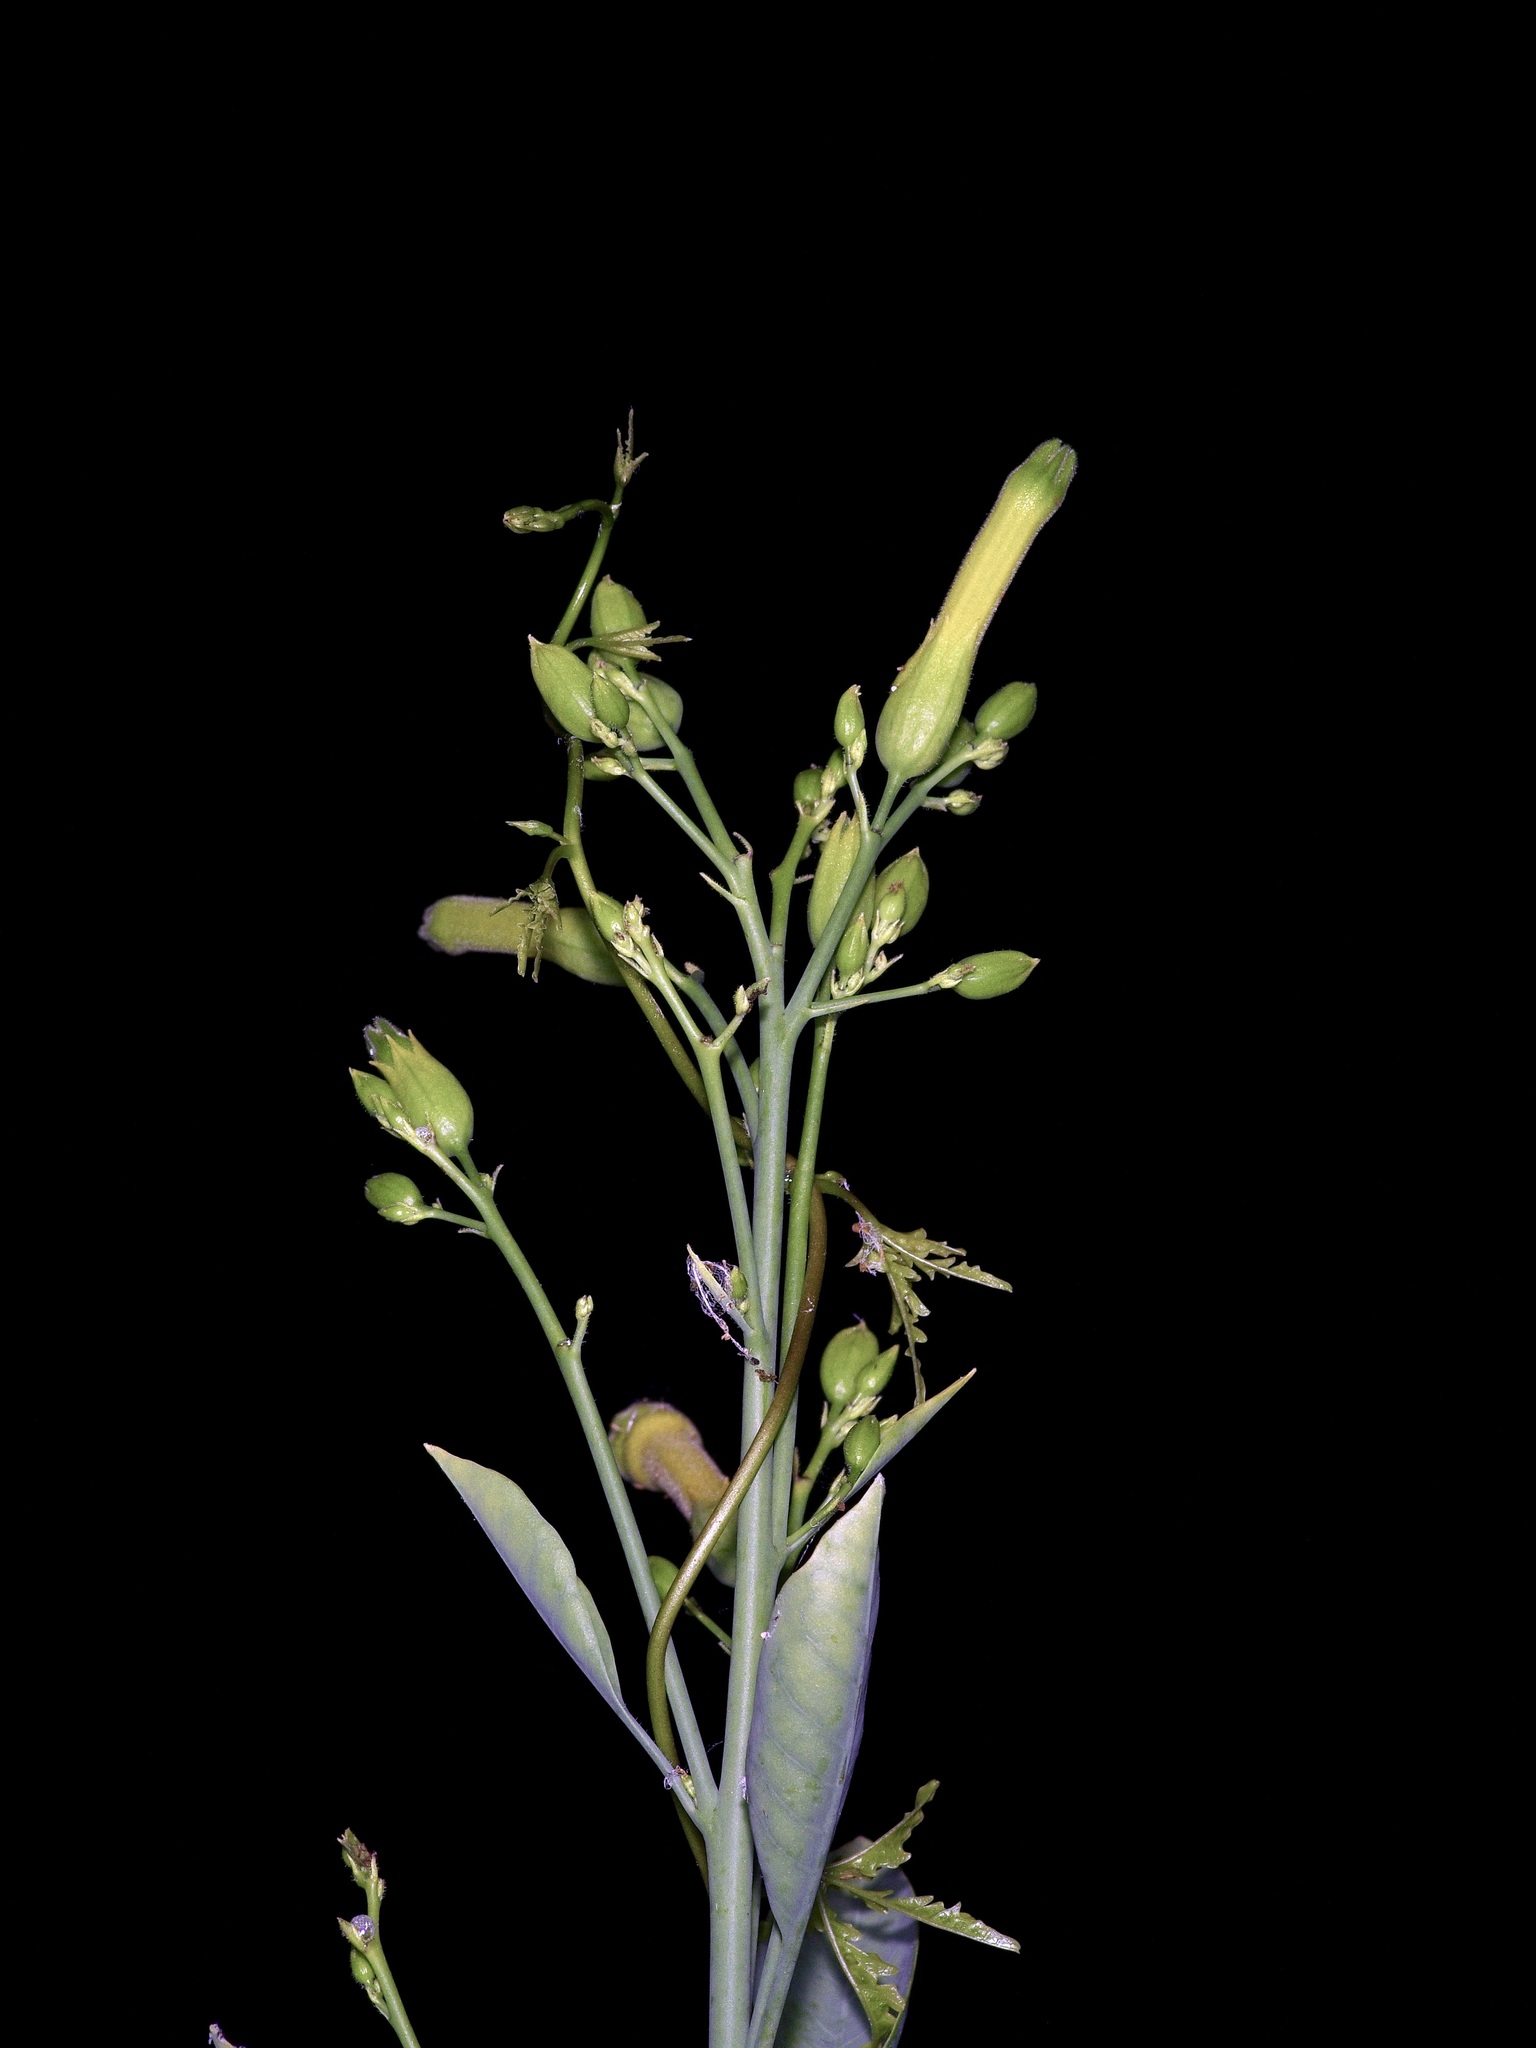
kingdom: Plantae
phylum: Tracheophyta
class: Magnoliopsida
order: Solanales
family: Solanaceae
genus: Nicotiana
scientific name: Nicotiana glauca
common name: Tree tobacco
